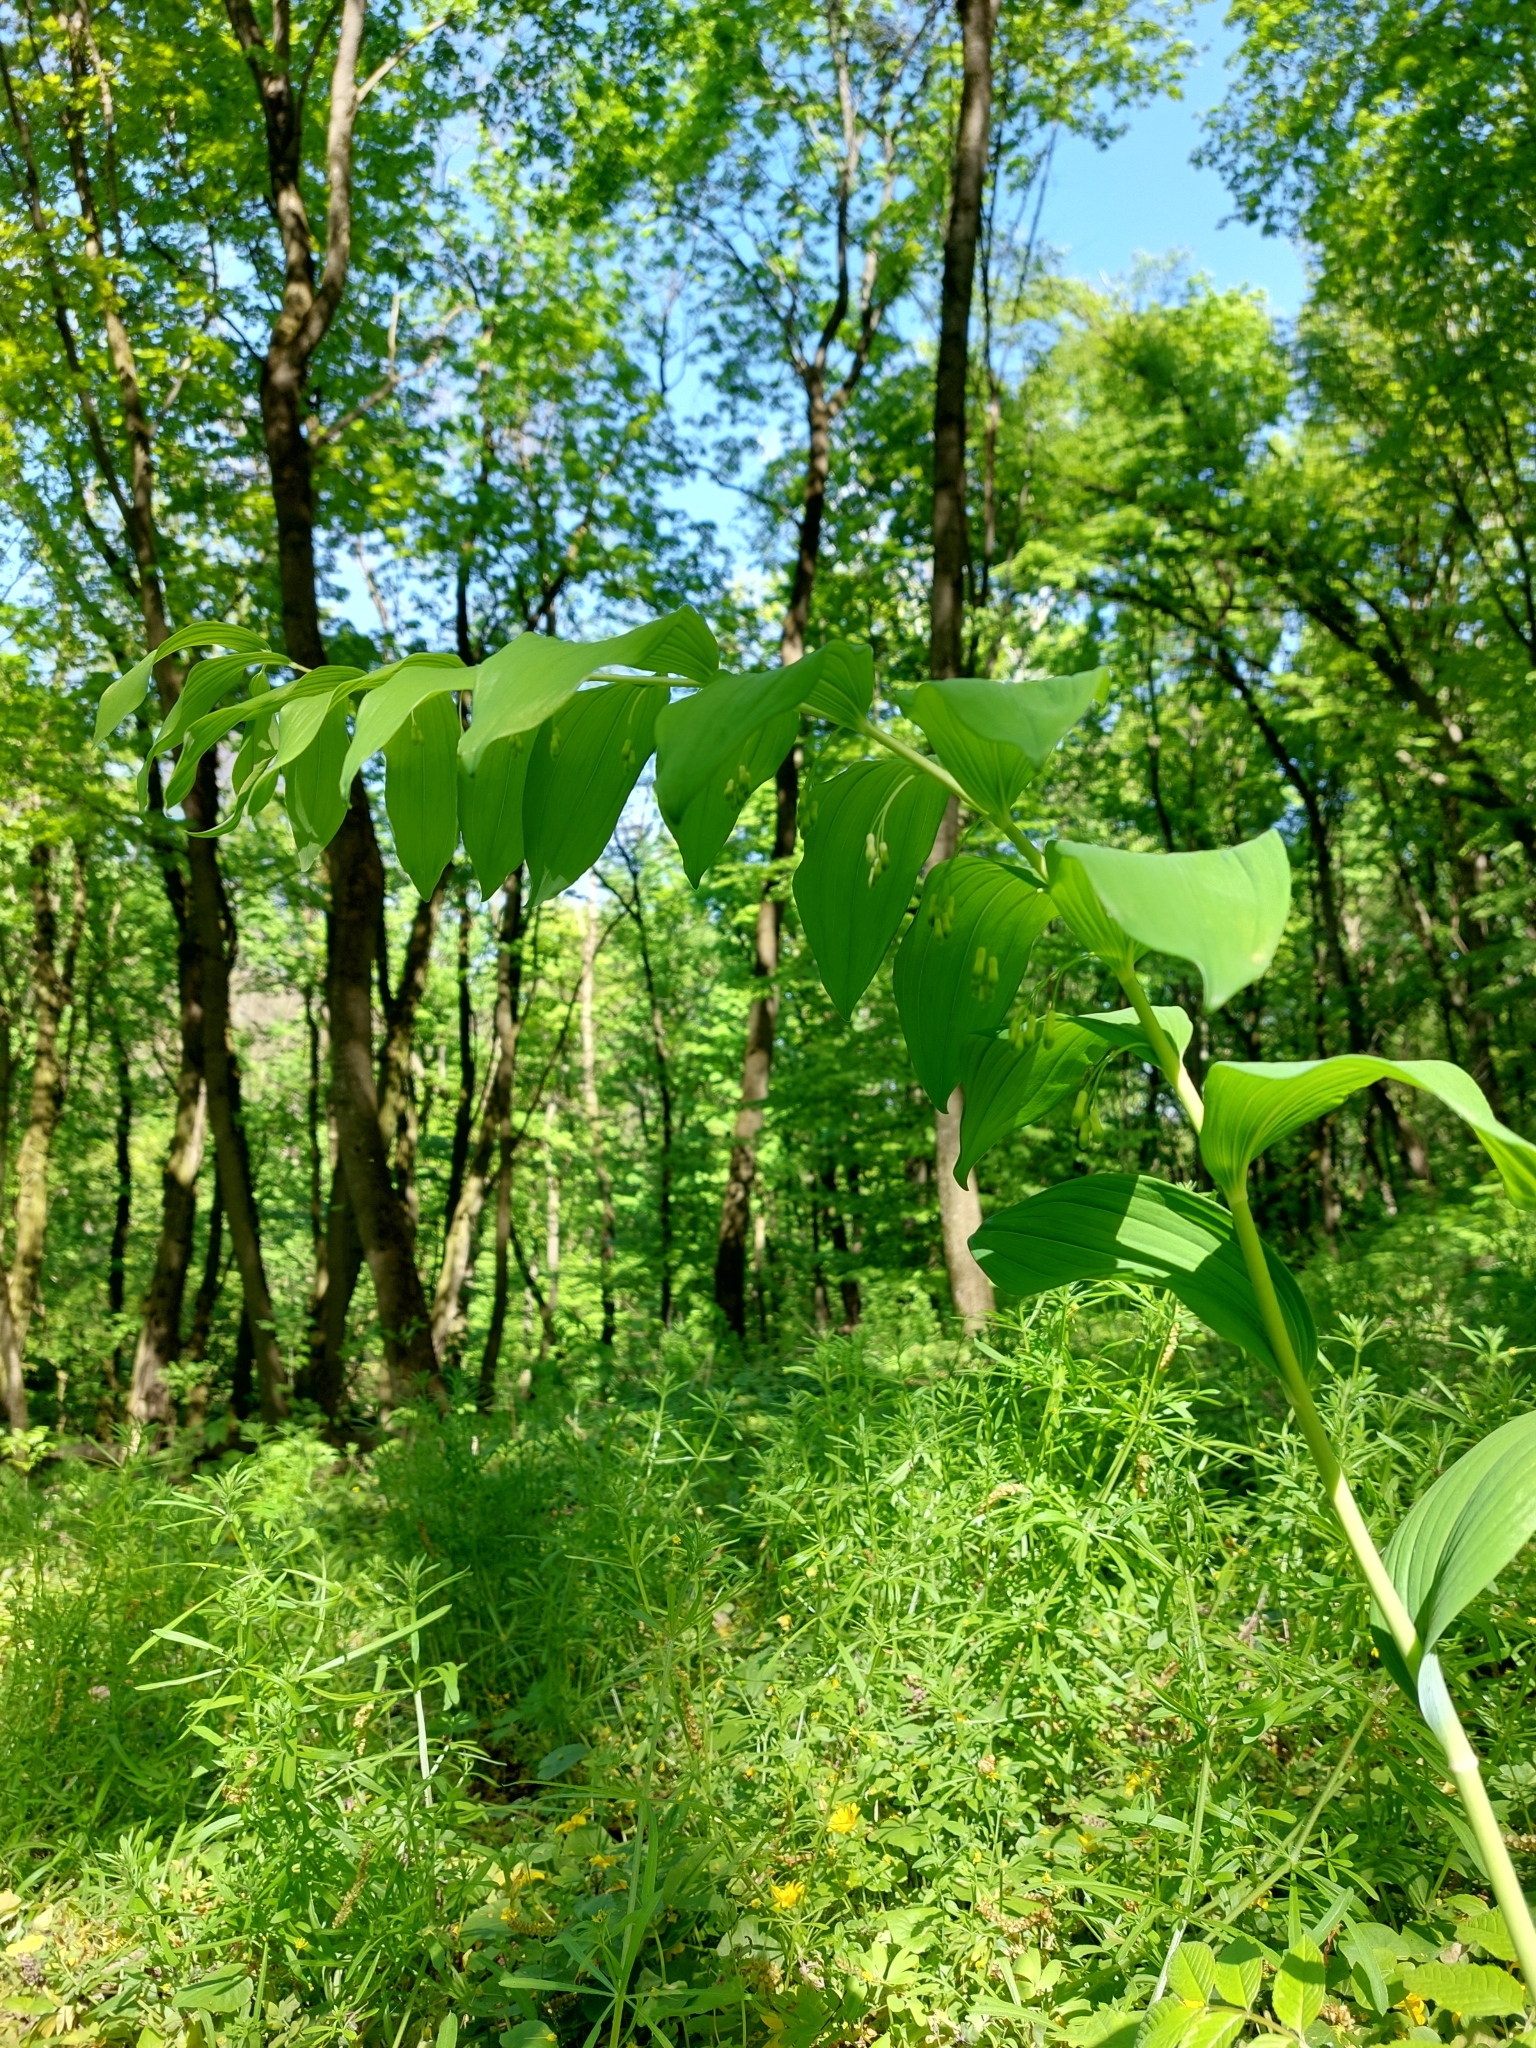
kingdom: Plantae
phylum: Tracheophyta
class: Liliopsida
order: Asparagales
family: Asparagaceae
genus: Polygonatum
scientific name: Polygonatum multiflorum
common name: Solomon's-seal
